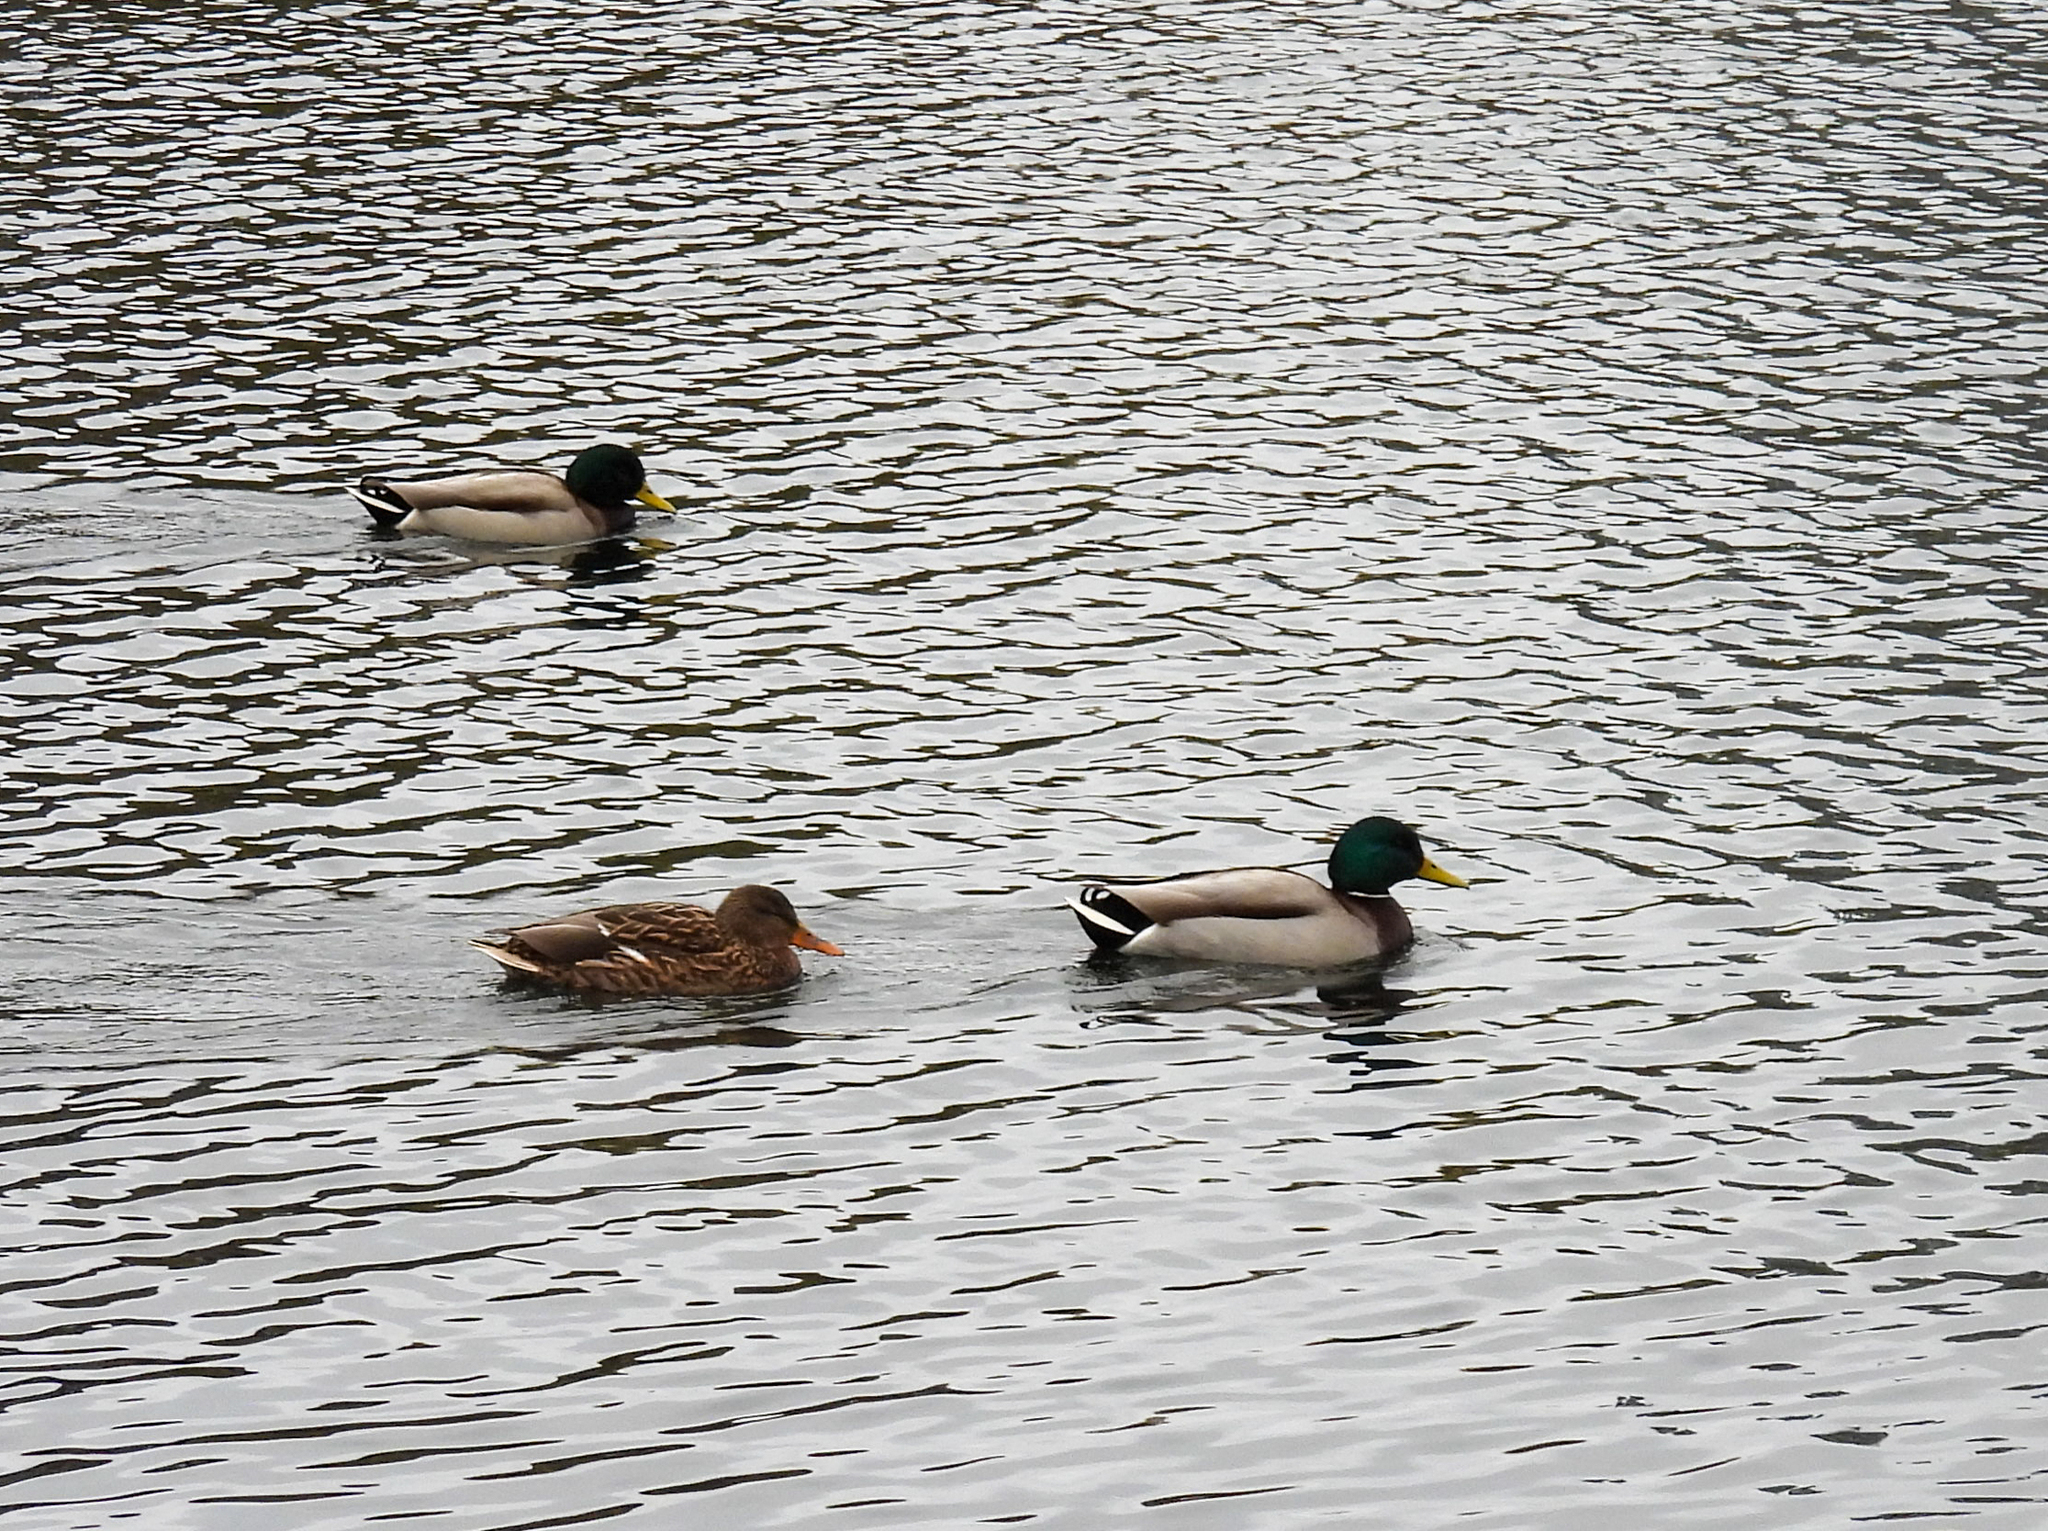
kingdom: Animalia
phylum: Chordata
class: Aves
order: Anseriformes
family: Anatidae
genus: Anas
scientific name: Anas platyrhynchos
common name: Mallard
